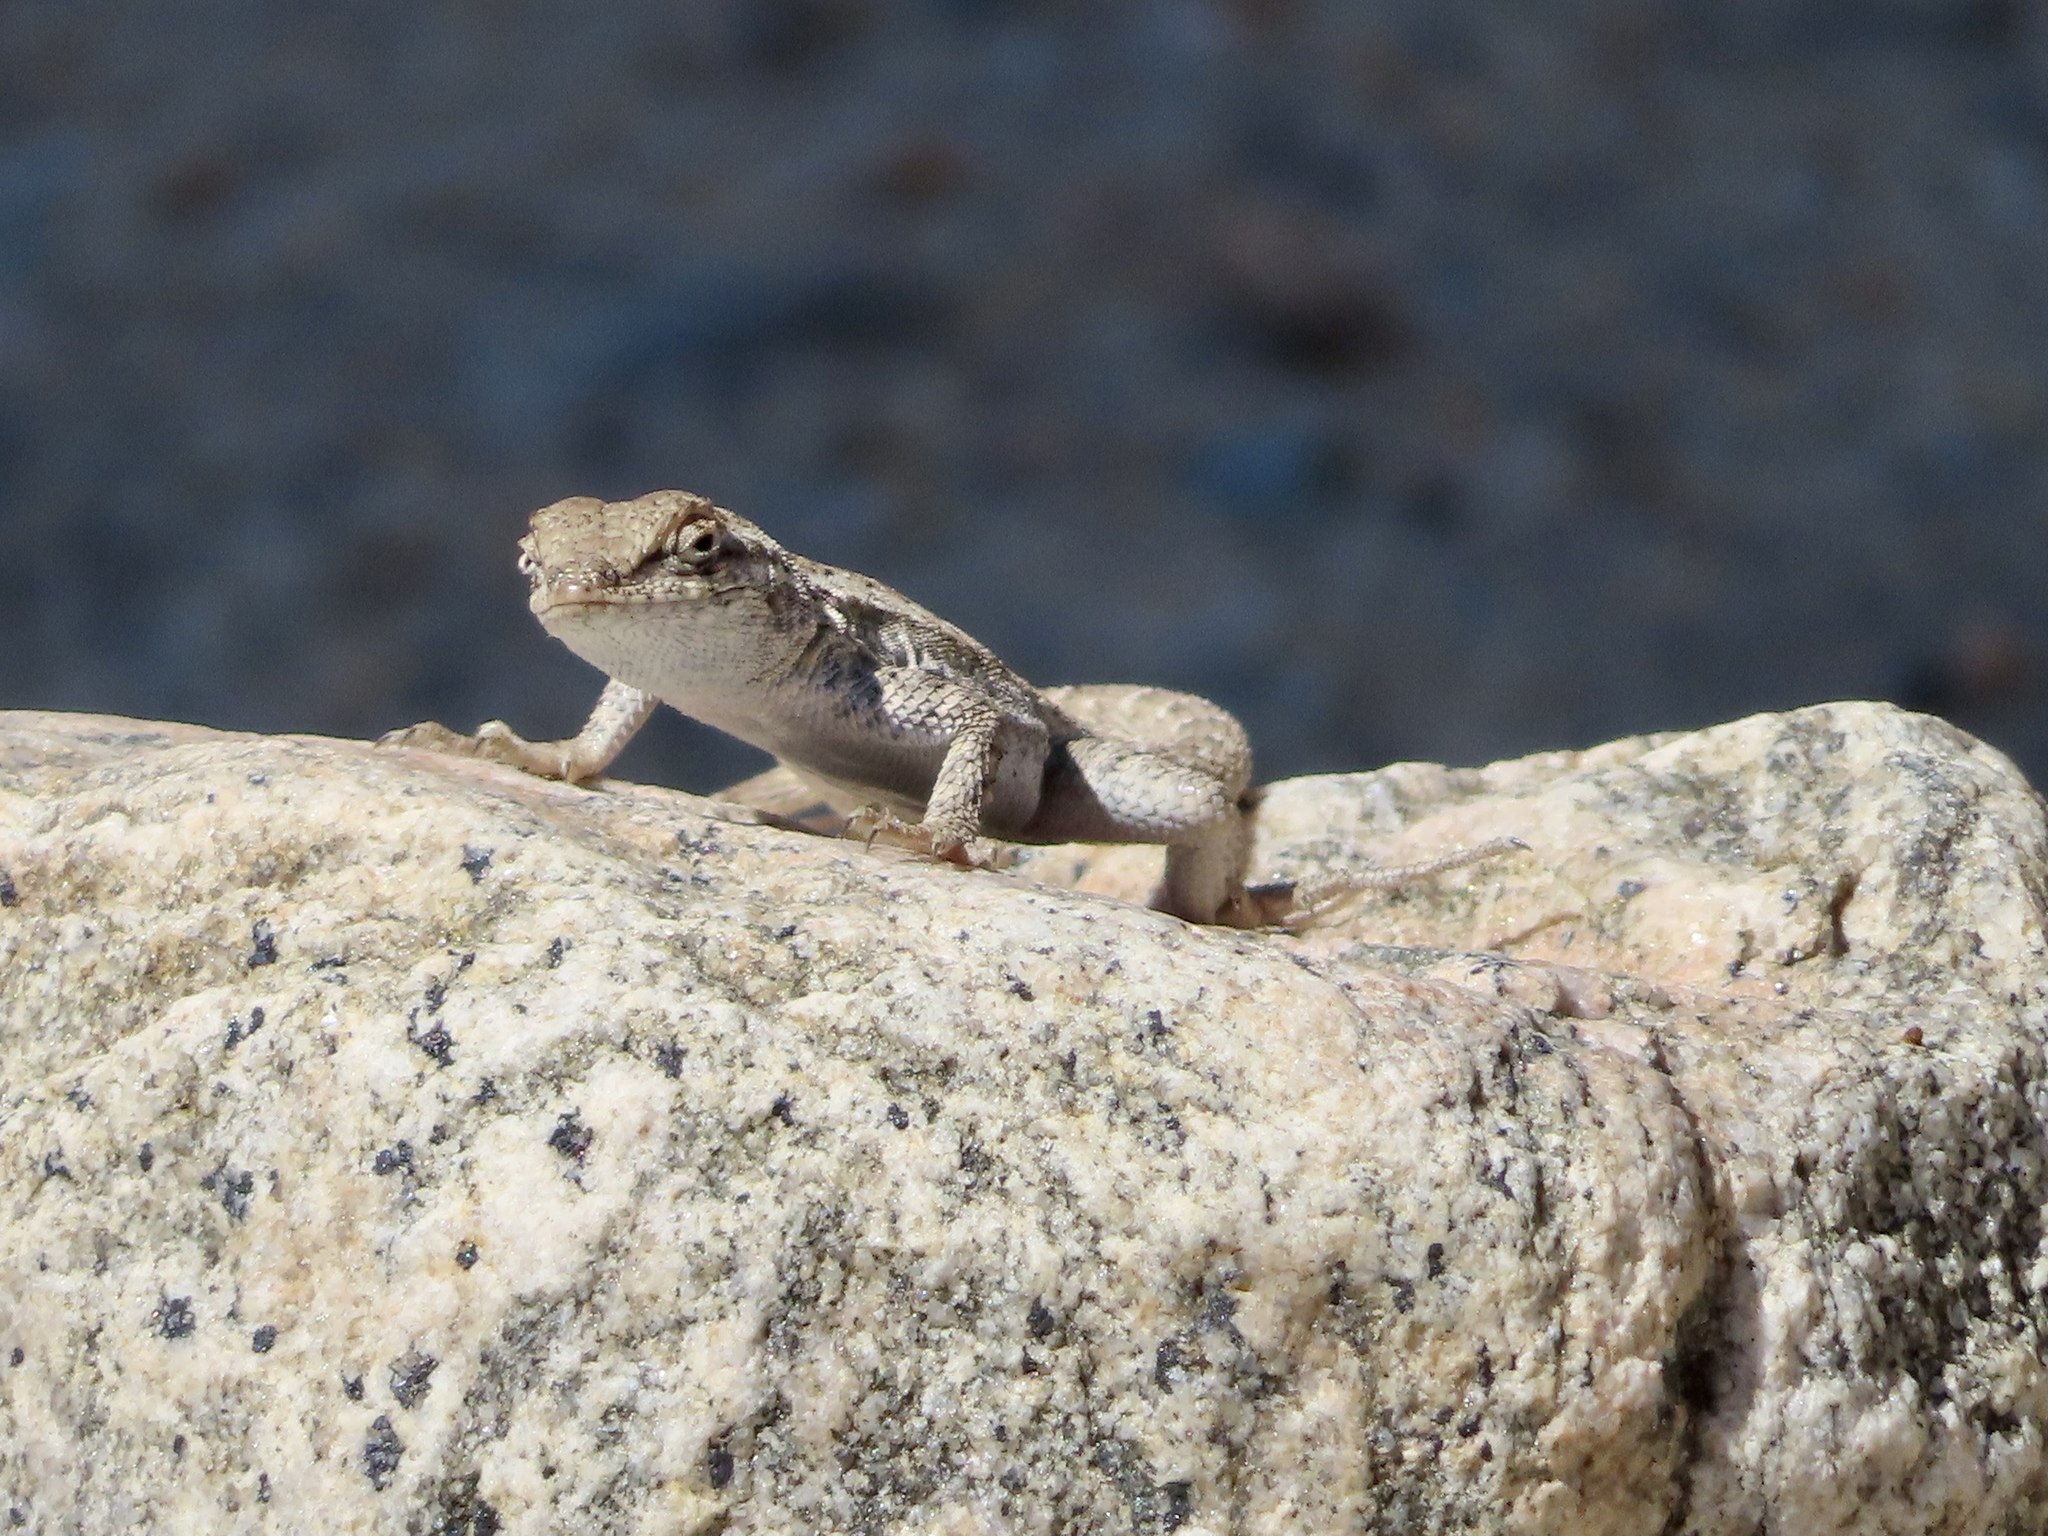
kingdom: Animalia
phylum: Chordata
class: Squamata
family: Phrynosomatidae
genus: Uta
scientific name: Uta stansburiana
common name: Side-blotched lizard
